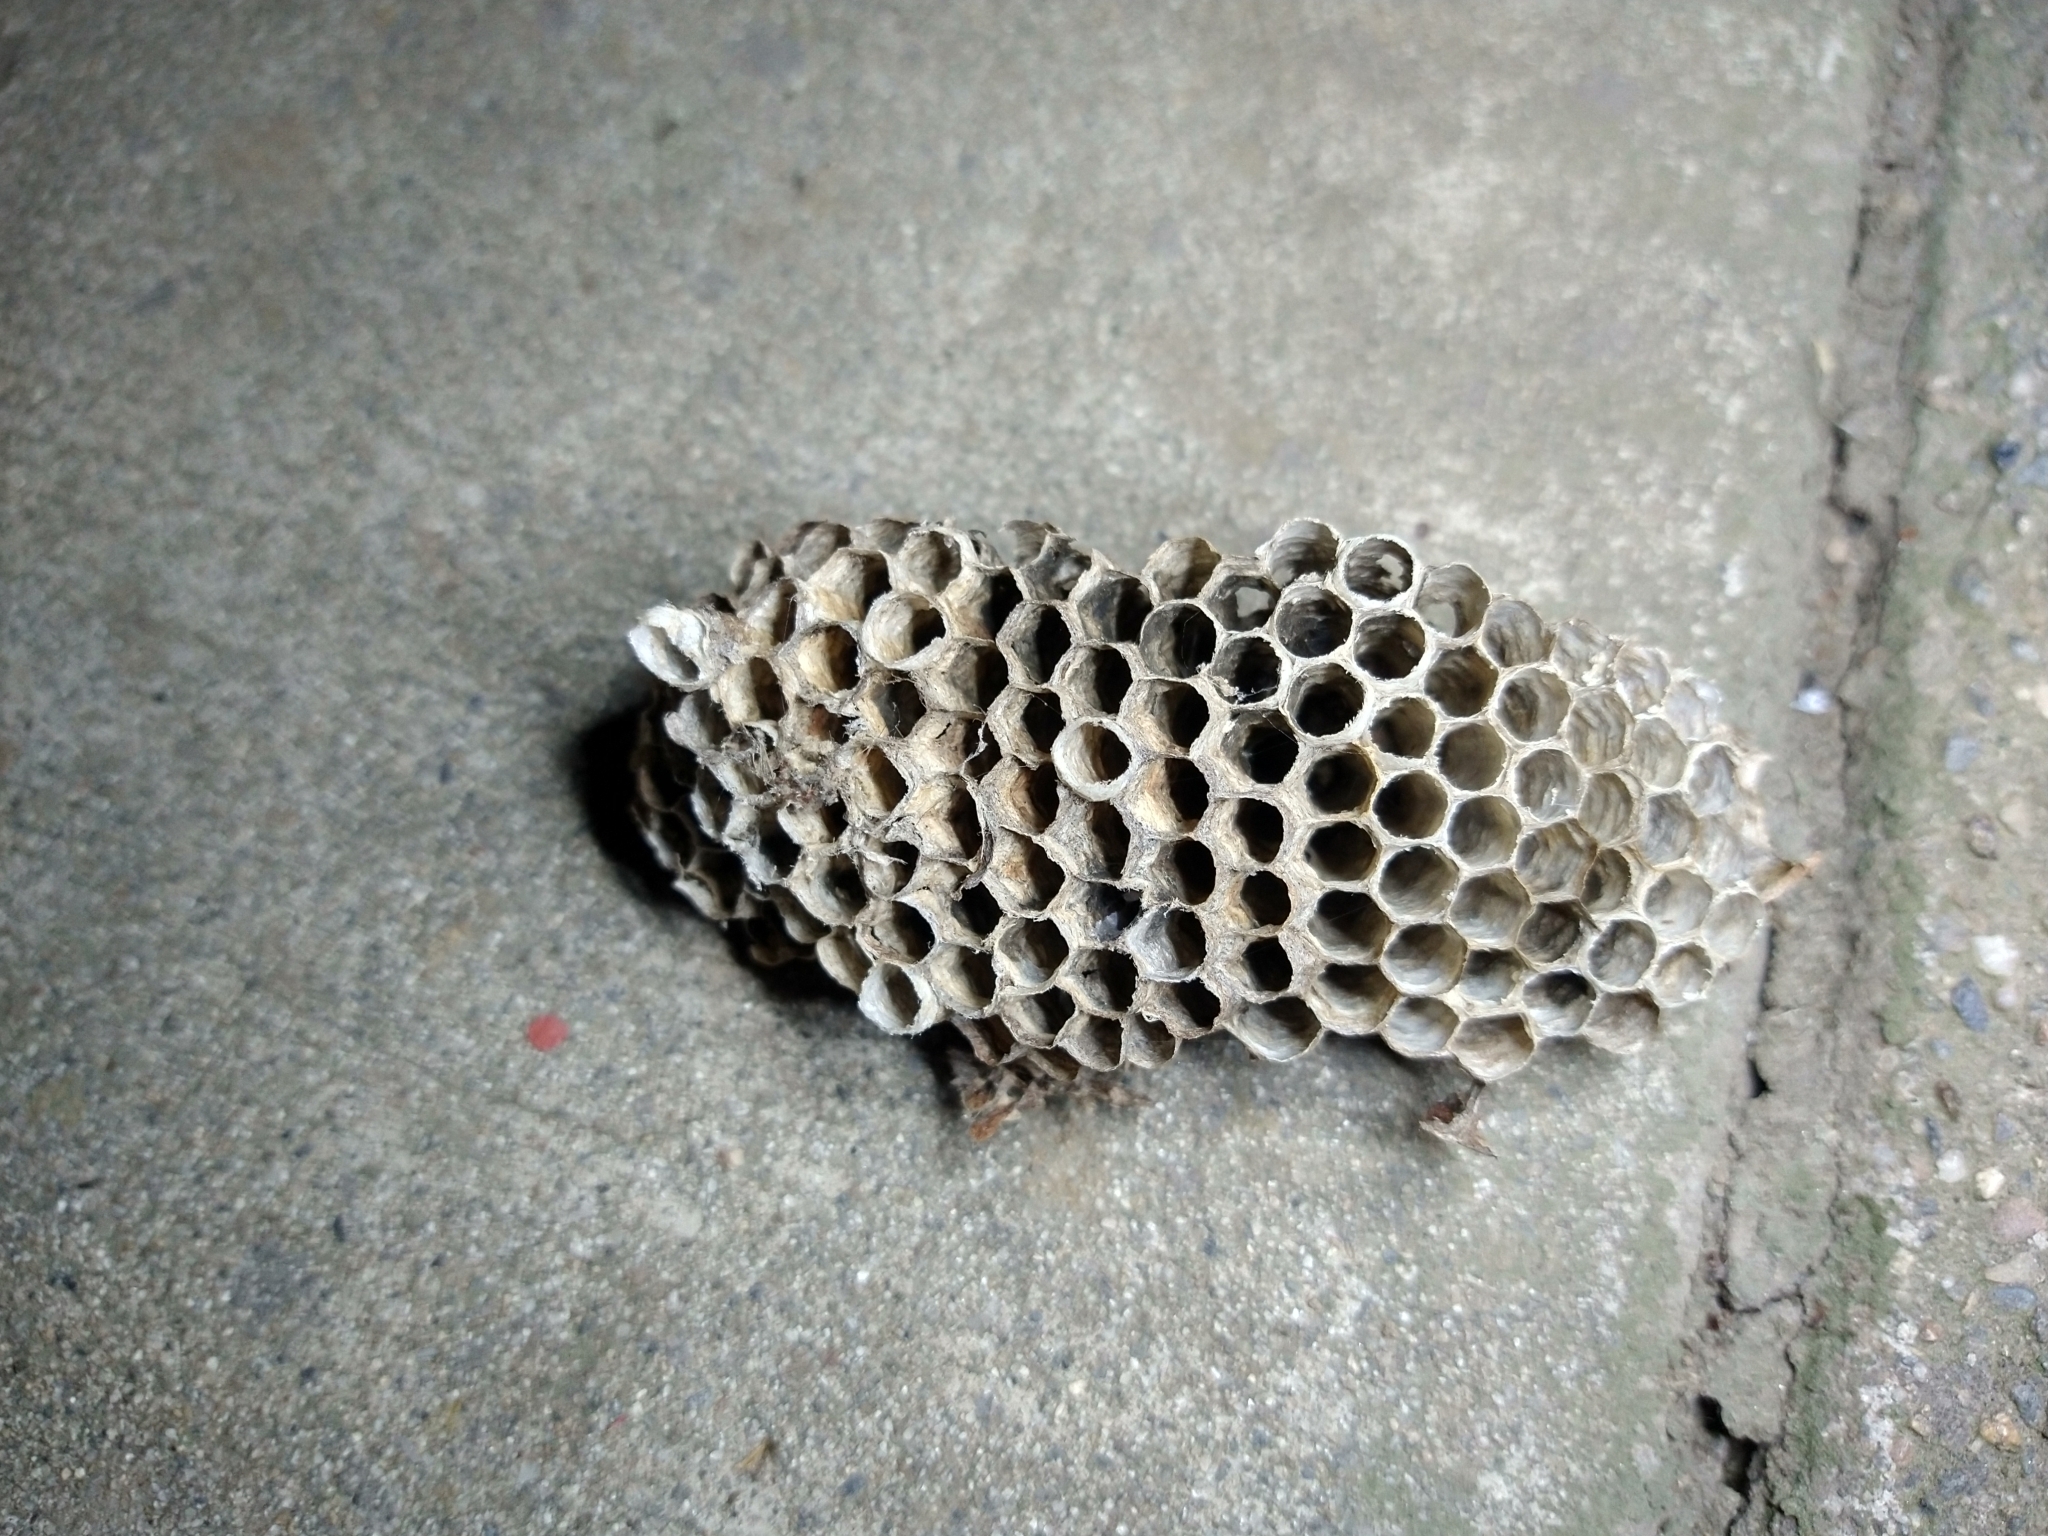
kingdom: Animalia
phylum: Arthropoda
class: Insecta
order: Hymenoptera
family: Vespidae
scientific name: Vespidae
